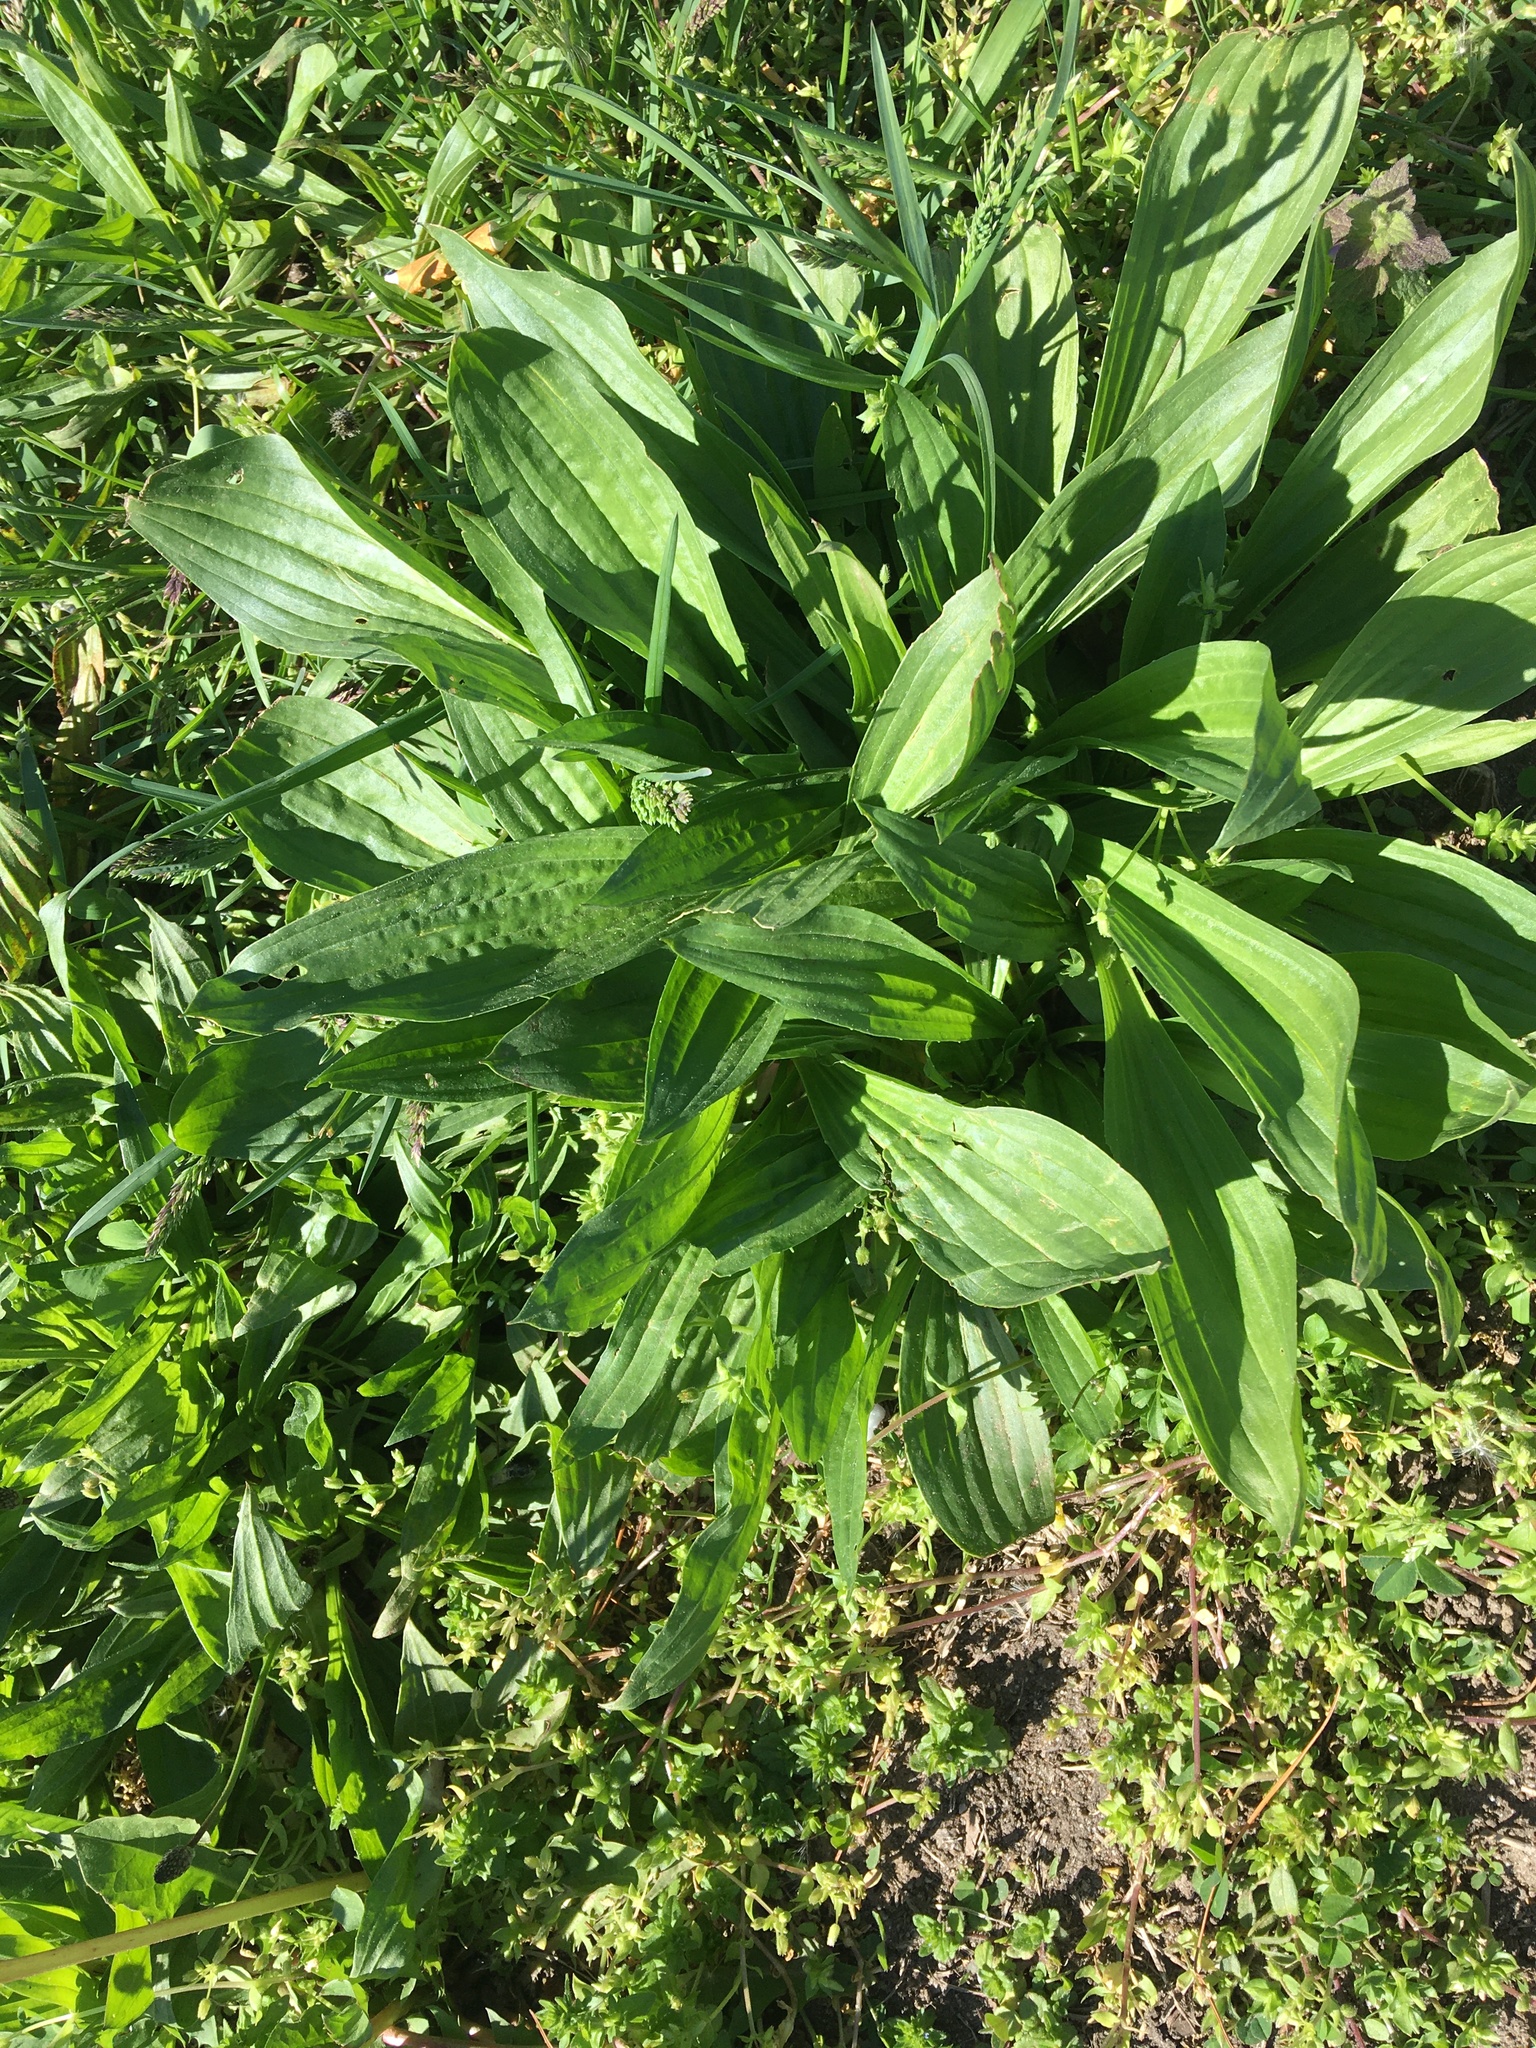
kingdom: Plantae
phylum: Tracheophyta
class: Magnoliopsida
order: Lamiales
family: Plantaginaceae
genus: Plantago
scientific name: Plantago lanceolata
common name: Ribwort plantain
